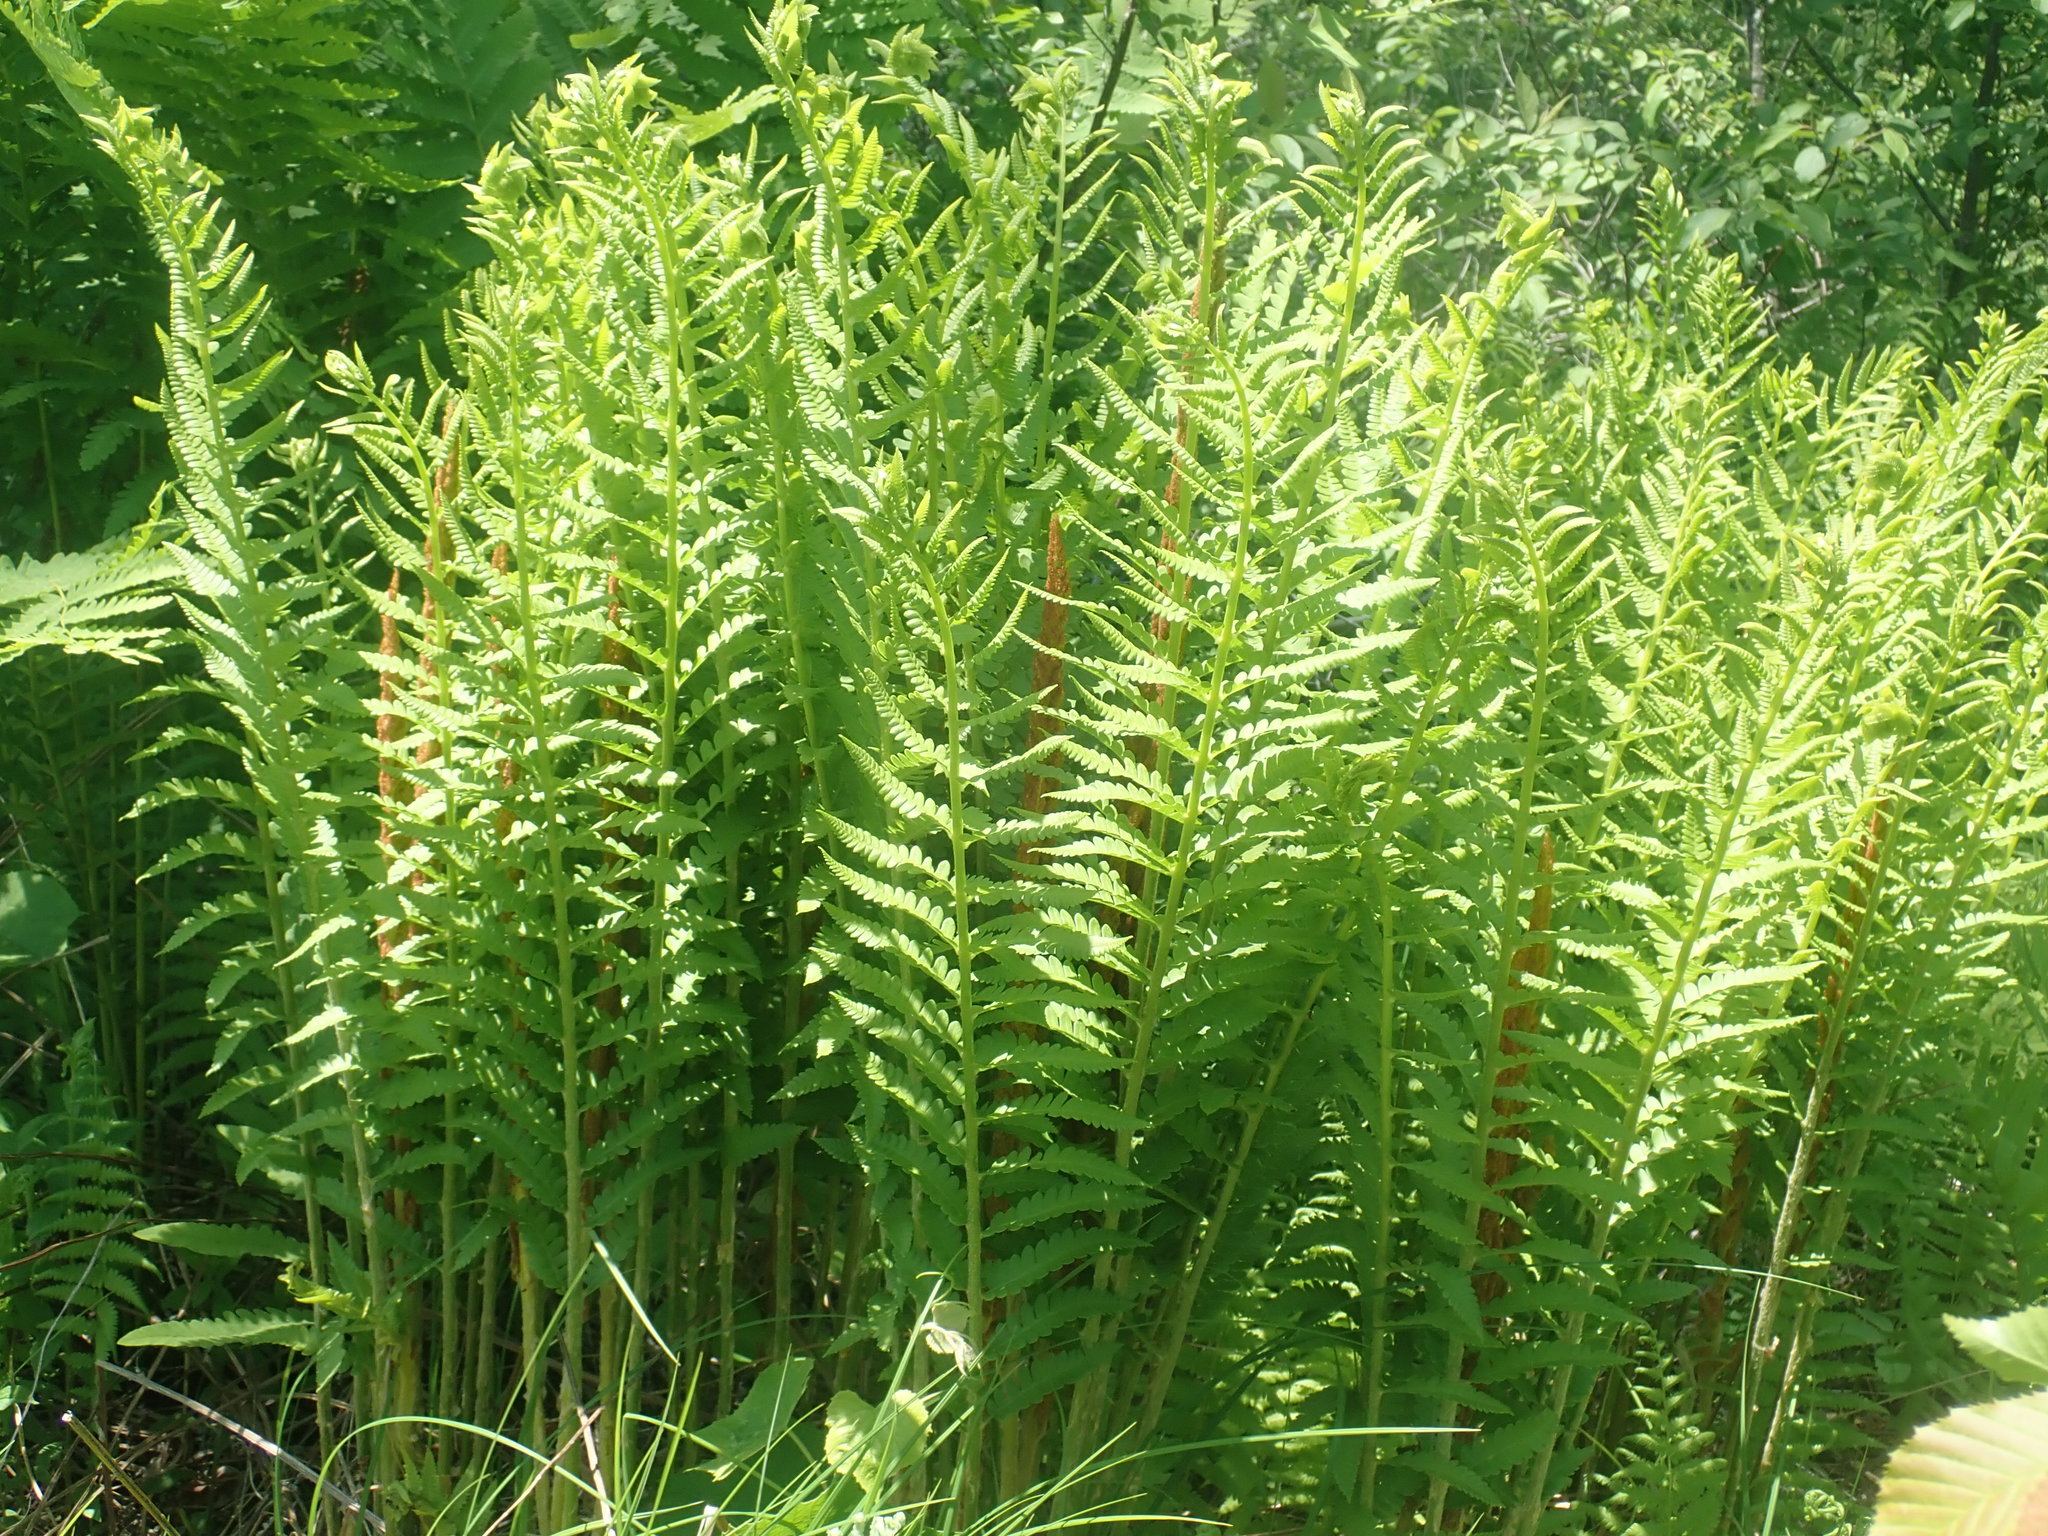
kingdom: Plantae
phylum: Tracheophyta
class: Polypodiopsida
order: Osmundales
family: Osmundaceae
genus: Osmundastrum
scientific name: Osmundastrum cinnamomeum
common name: Cinnamon fern
